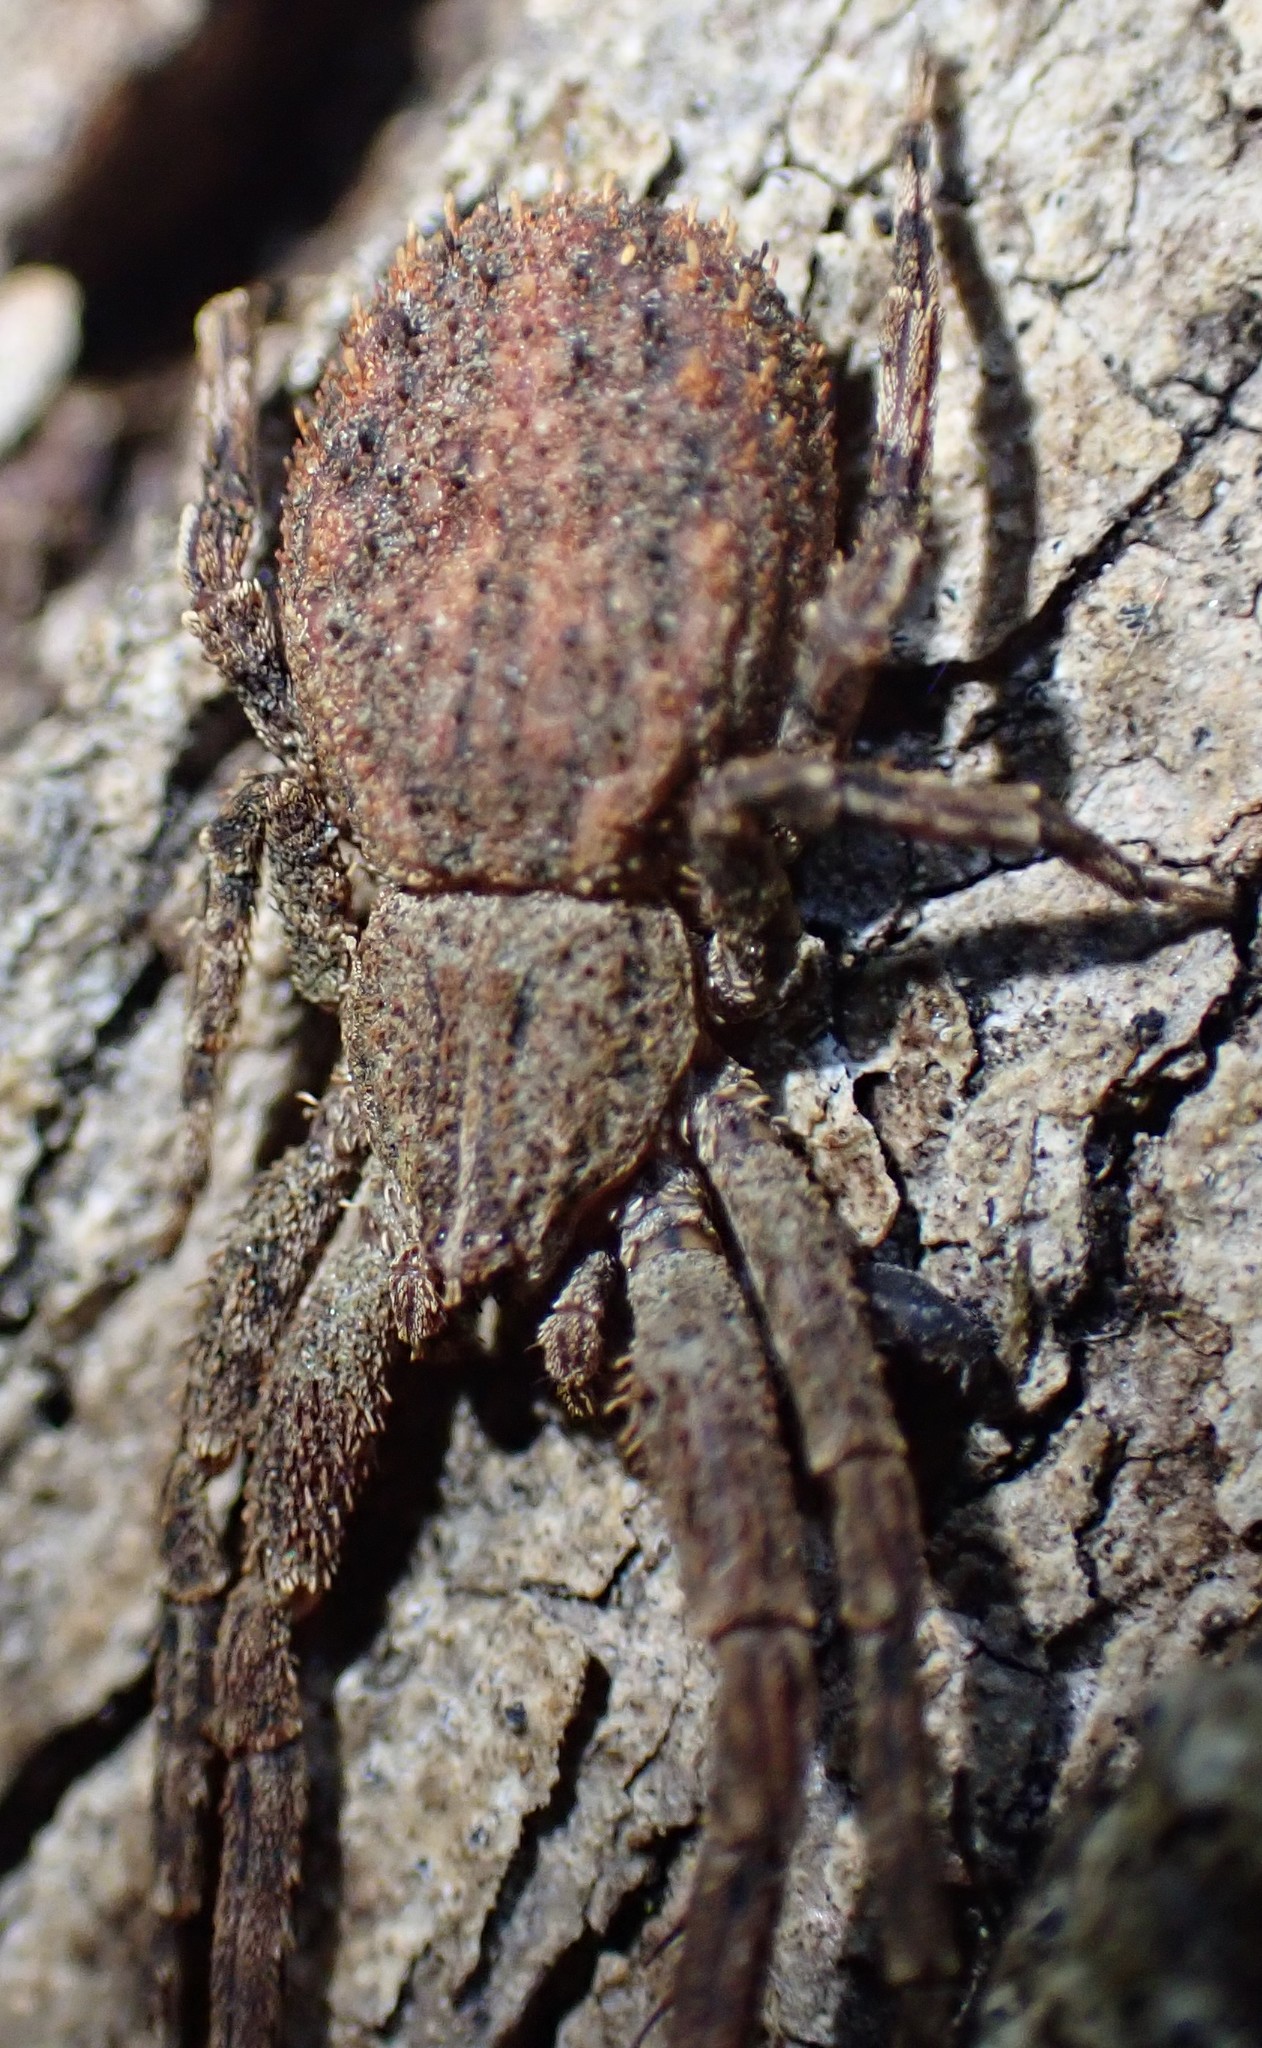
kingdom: Animalia
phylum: Arthropoda
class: Arachnida
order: Araneae
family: Thomisidae
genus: Isala
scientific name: Isala cambridgei
